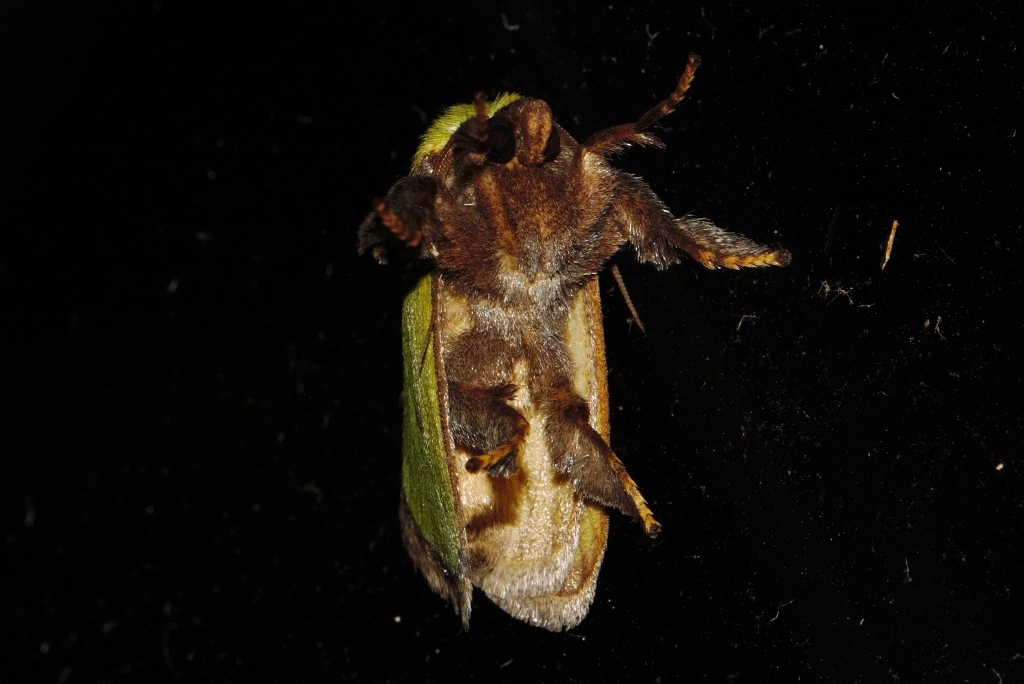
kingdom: Animalia
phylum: Arthropoda
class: Insecta
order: Lepidoptera
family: Limacodidae
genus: Parasa
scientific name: Parasa vivida
